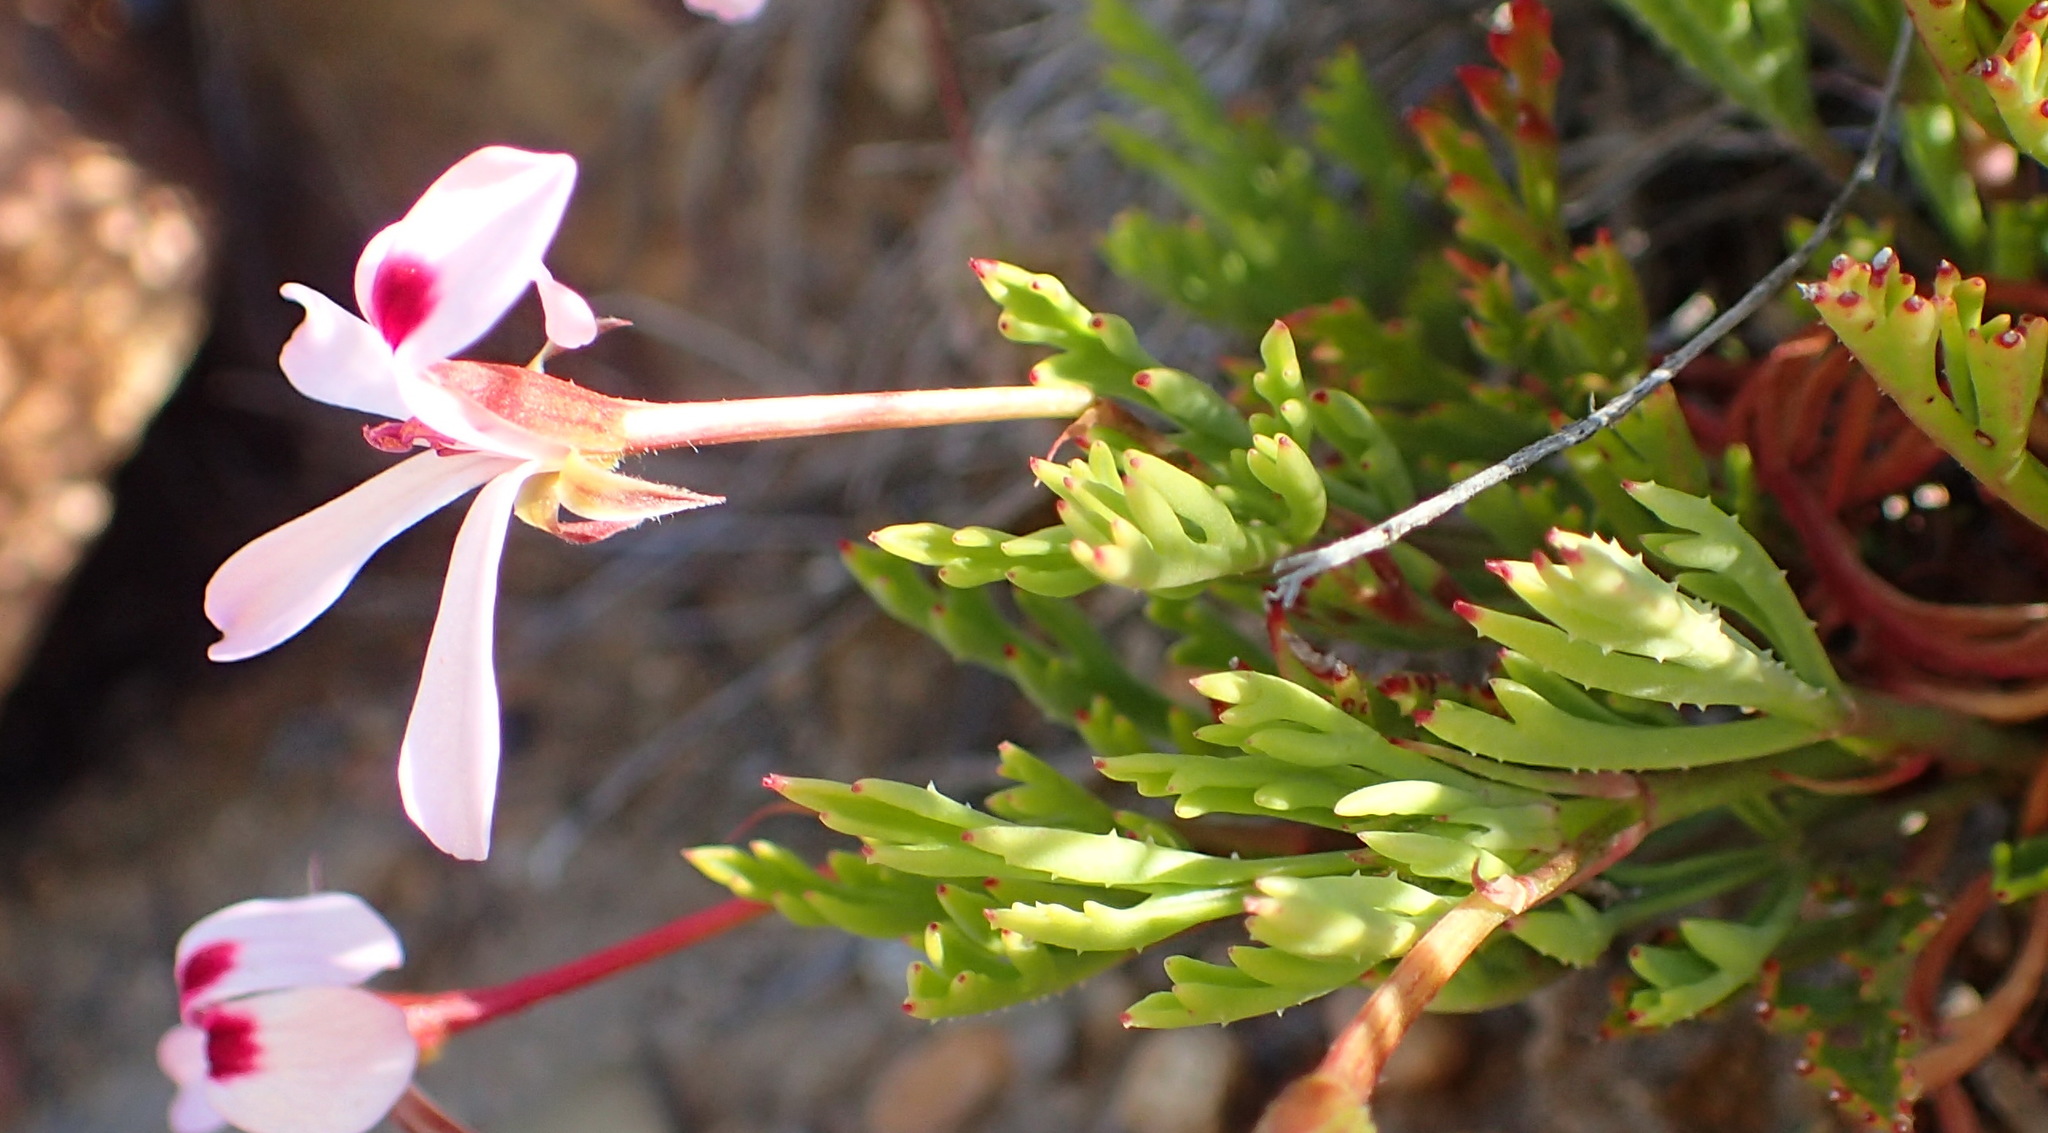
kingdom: Plantae
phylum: Tracheophyta
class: Magnoliopsida
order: Geraniales
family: Geraniaceae
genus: Pelargonium
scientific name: Pelargonium laevigatum
